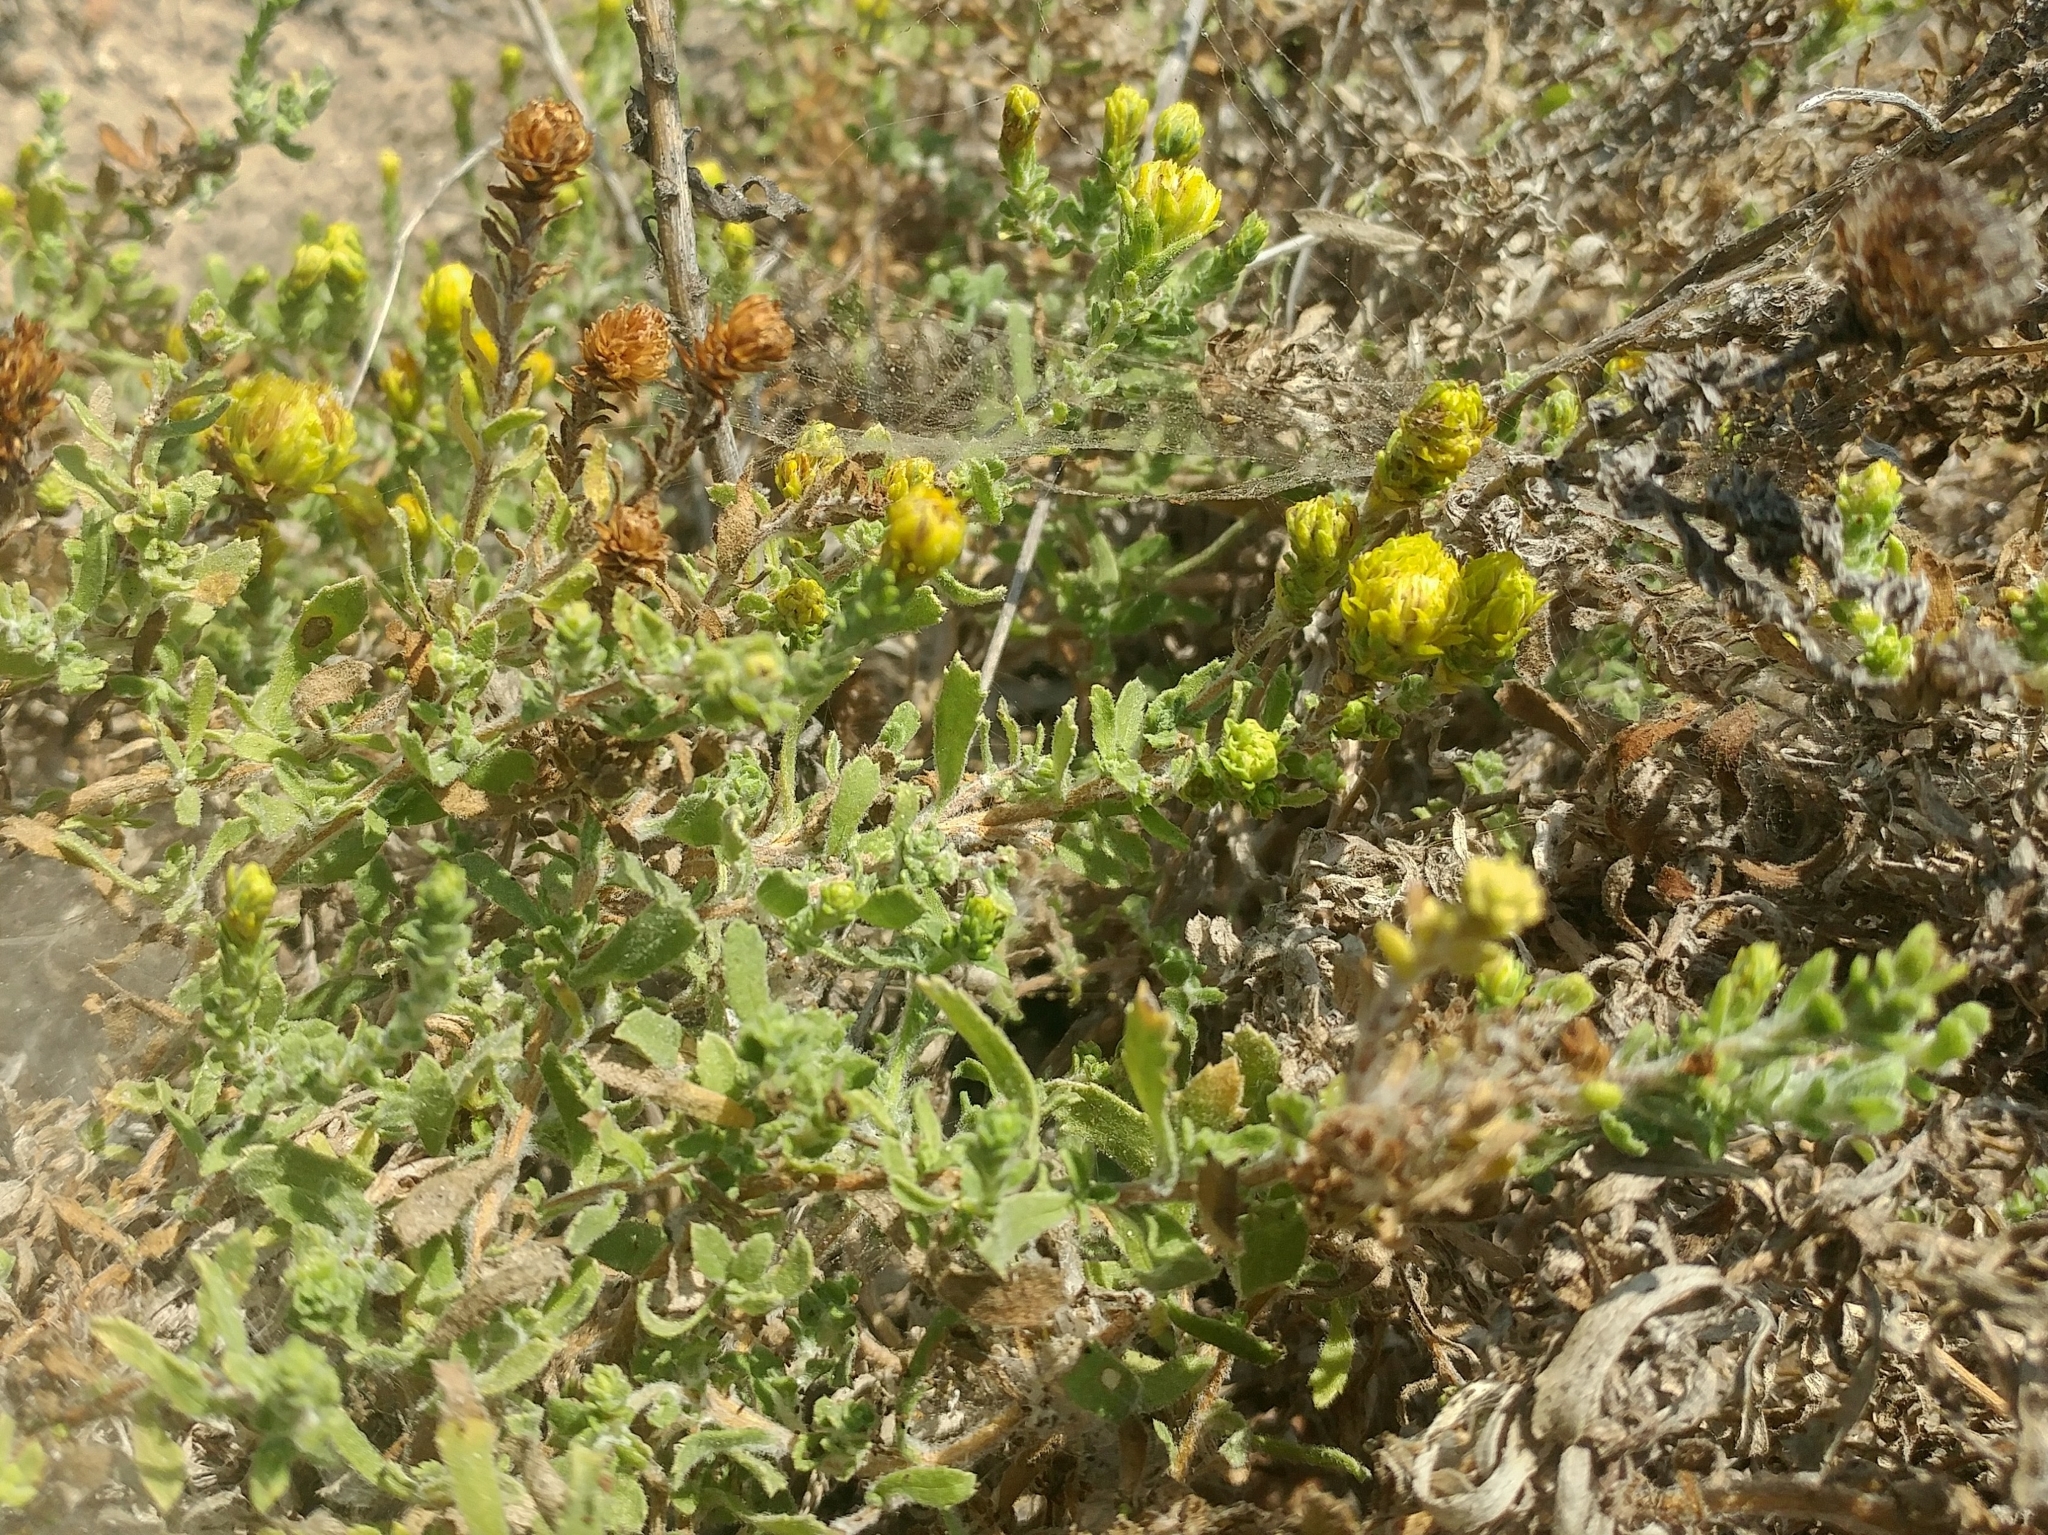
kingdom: Plantae
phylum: Tracheophyta
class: Magnoliopsida
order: Asterales
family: Asteraceae
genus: Isocoma
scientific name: Isocoma menziesii
